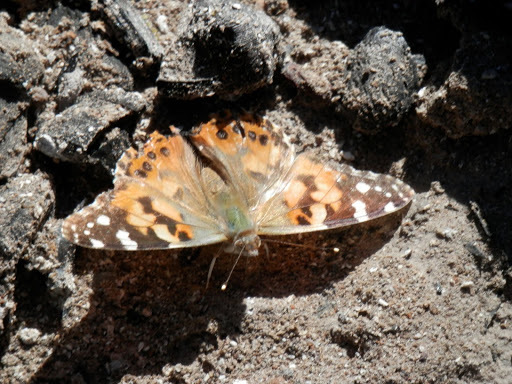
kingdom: Animalia
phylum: Arthropoda
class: Insecta
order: Lepidoptera
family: Nymphalidae
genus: Vanessa
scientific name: Vanessa cardui
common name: Painted lady
